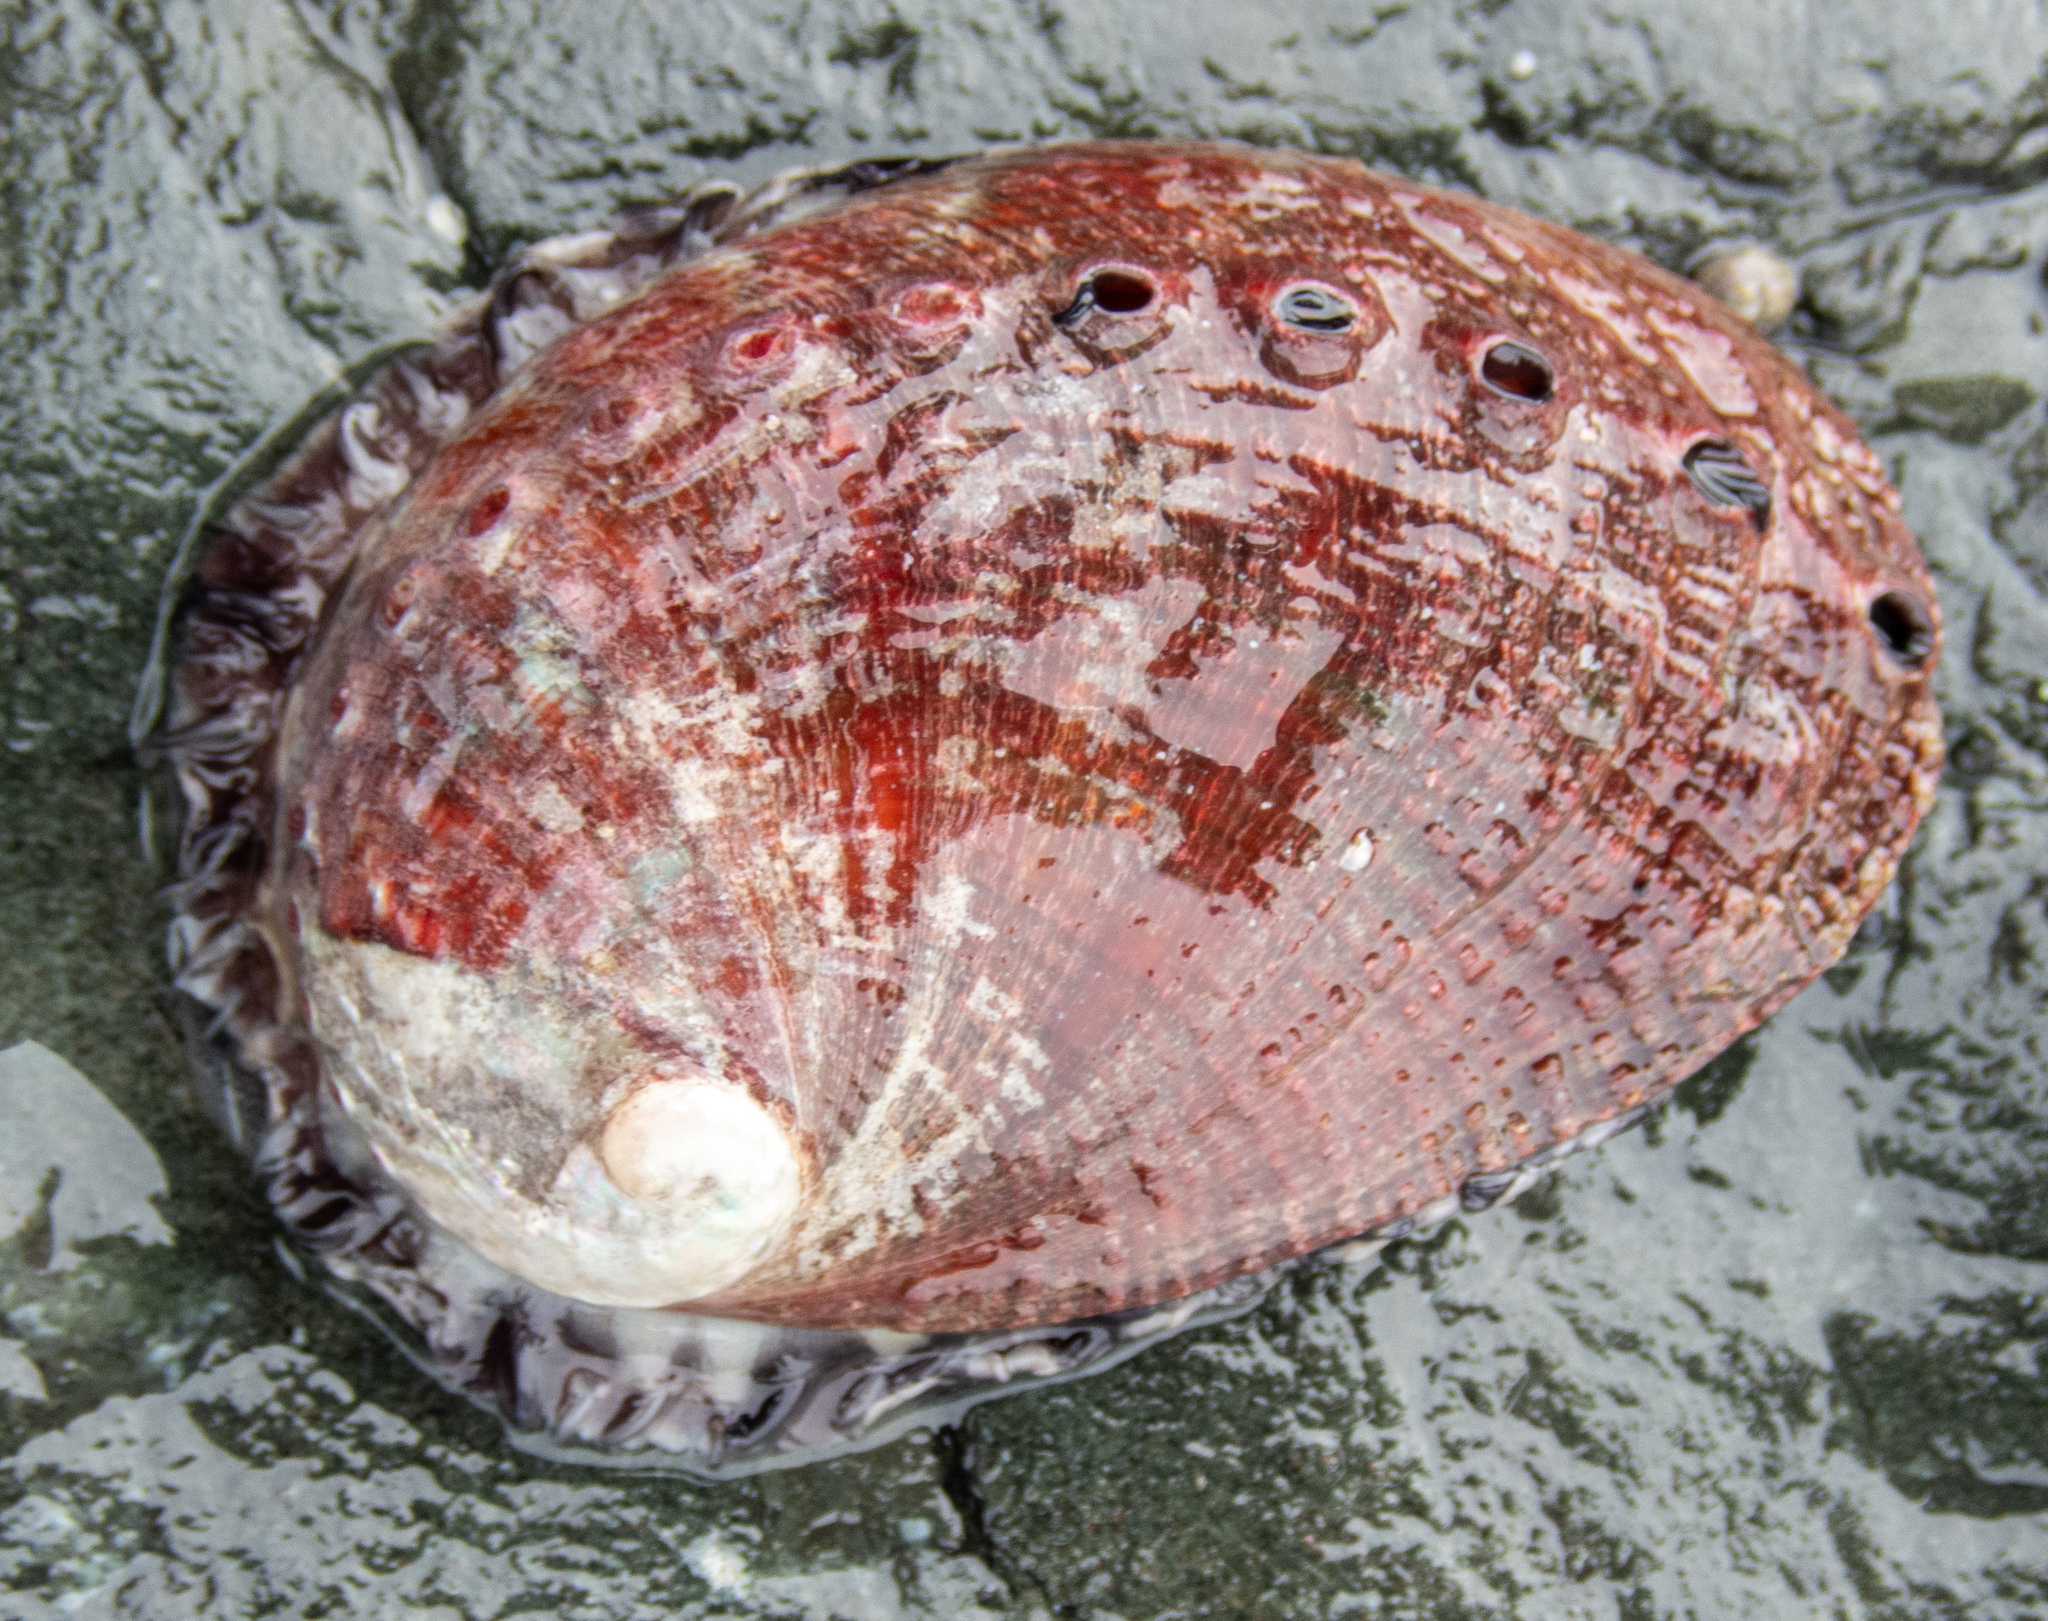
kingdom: Animalia
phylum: Mollusca
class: Gastropoda
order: Lepetellida
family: Haliotidae
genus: Haliotis
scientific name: Haliotis rufescens
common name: Red abalone
